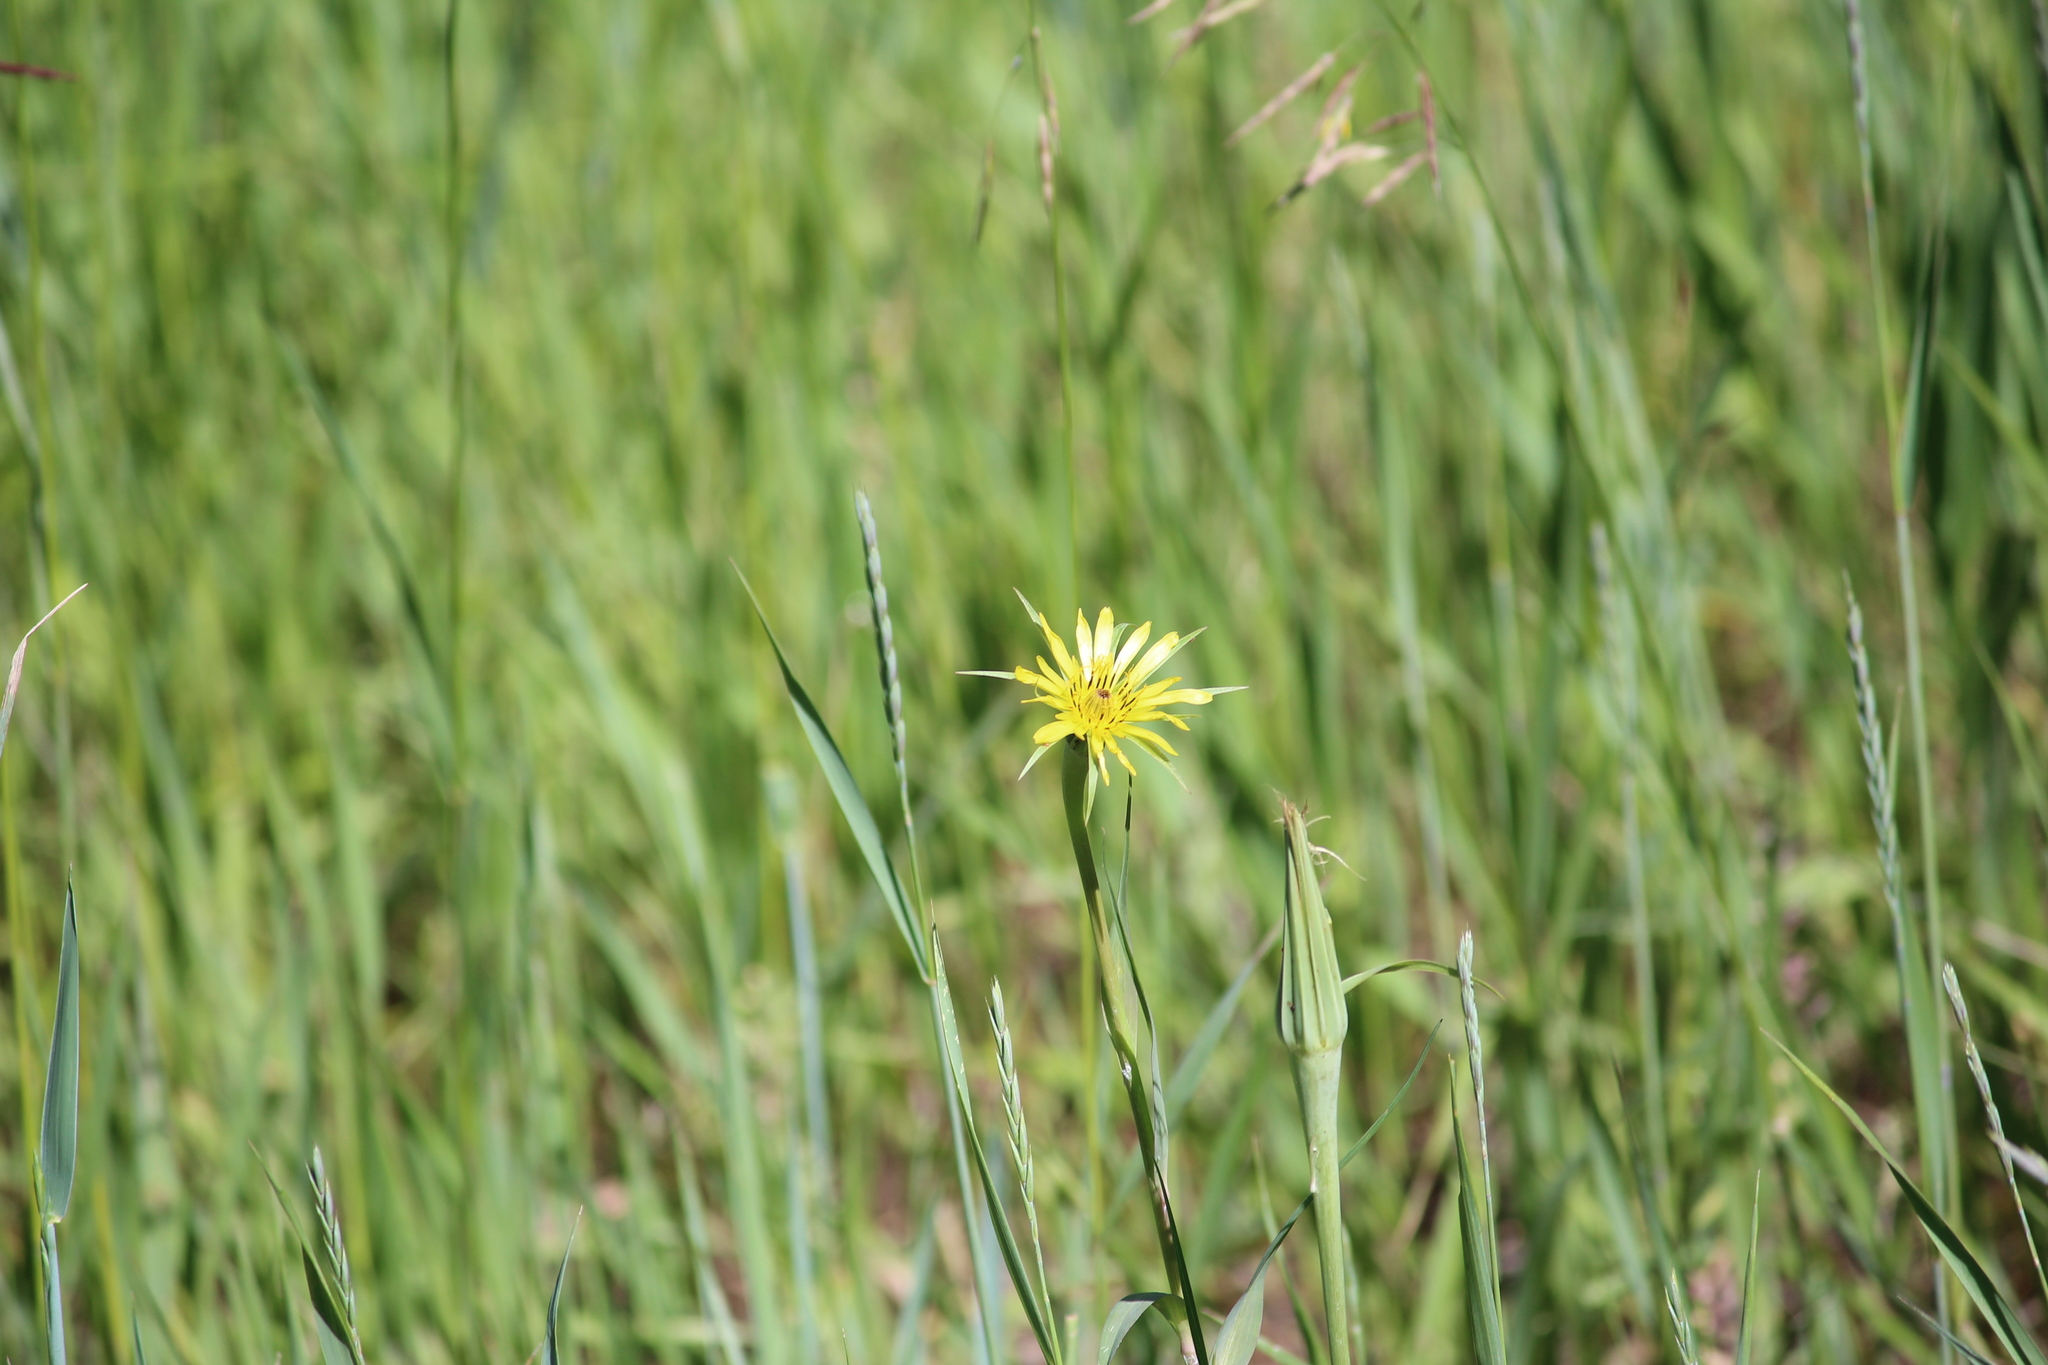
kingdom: Plantae
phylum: Tracheophyta
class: Magnoliopsida
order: Asterales
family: Asteraceae
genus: Tragopogon
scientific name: Tragopogon dubius
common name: Yellow salsify
